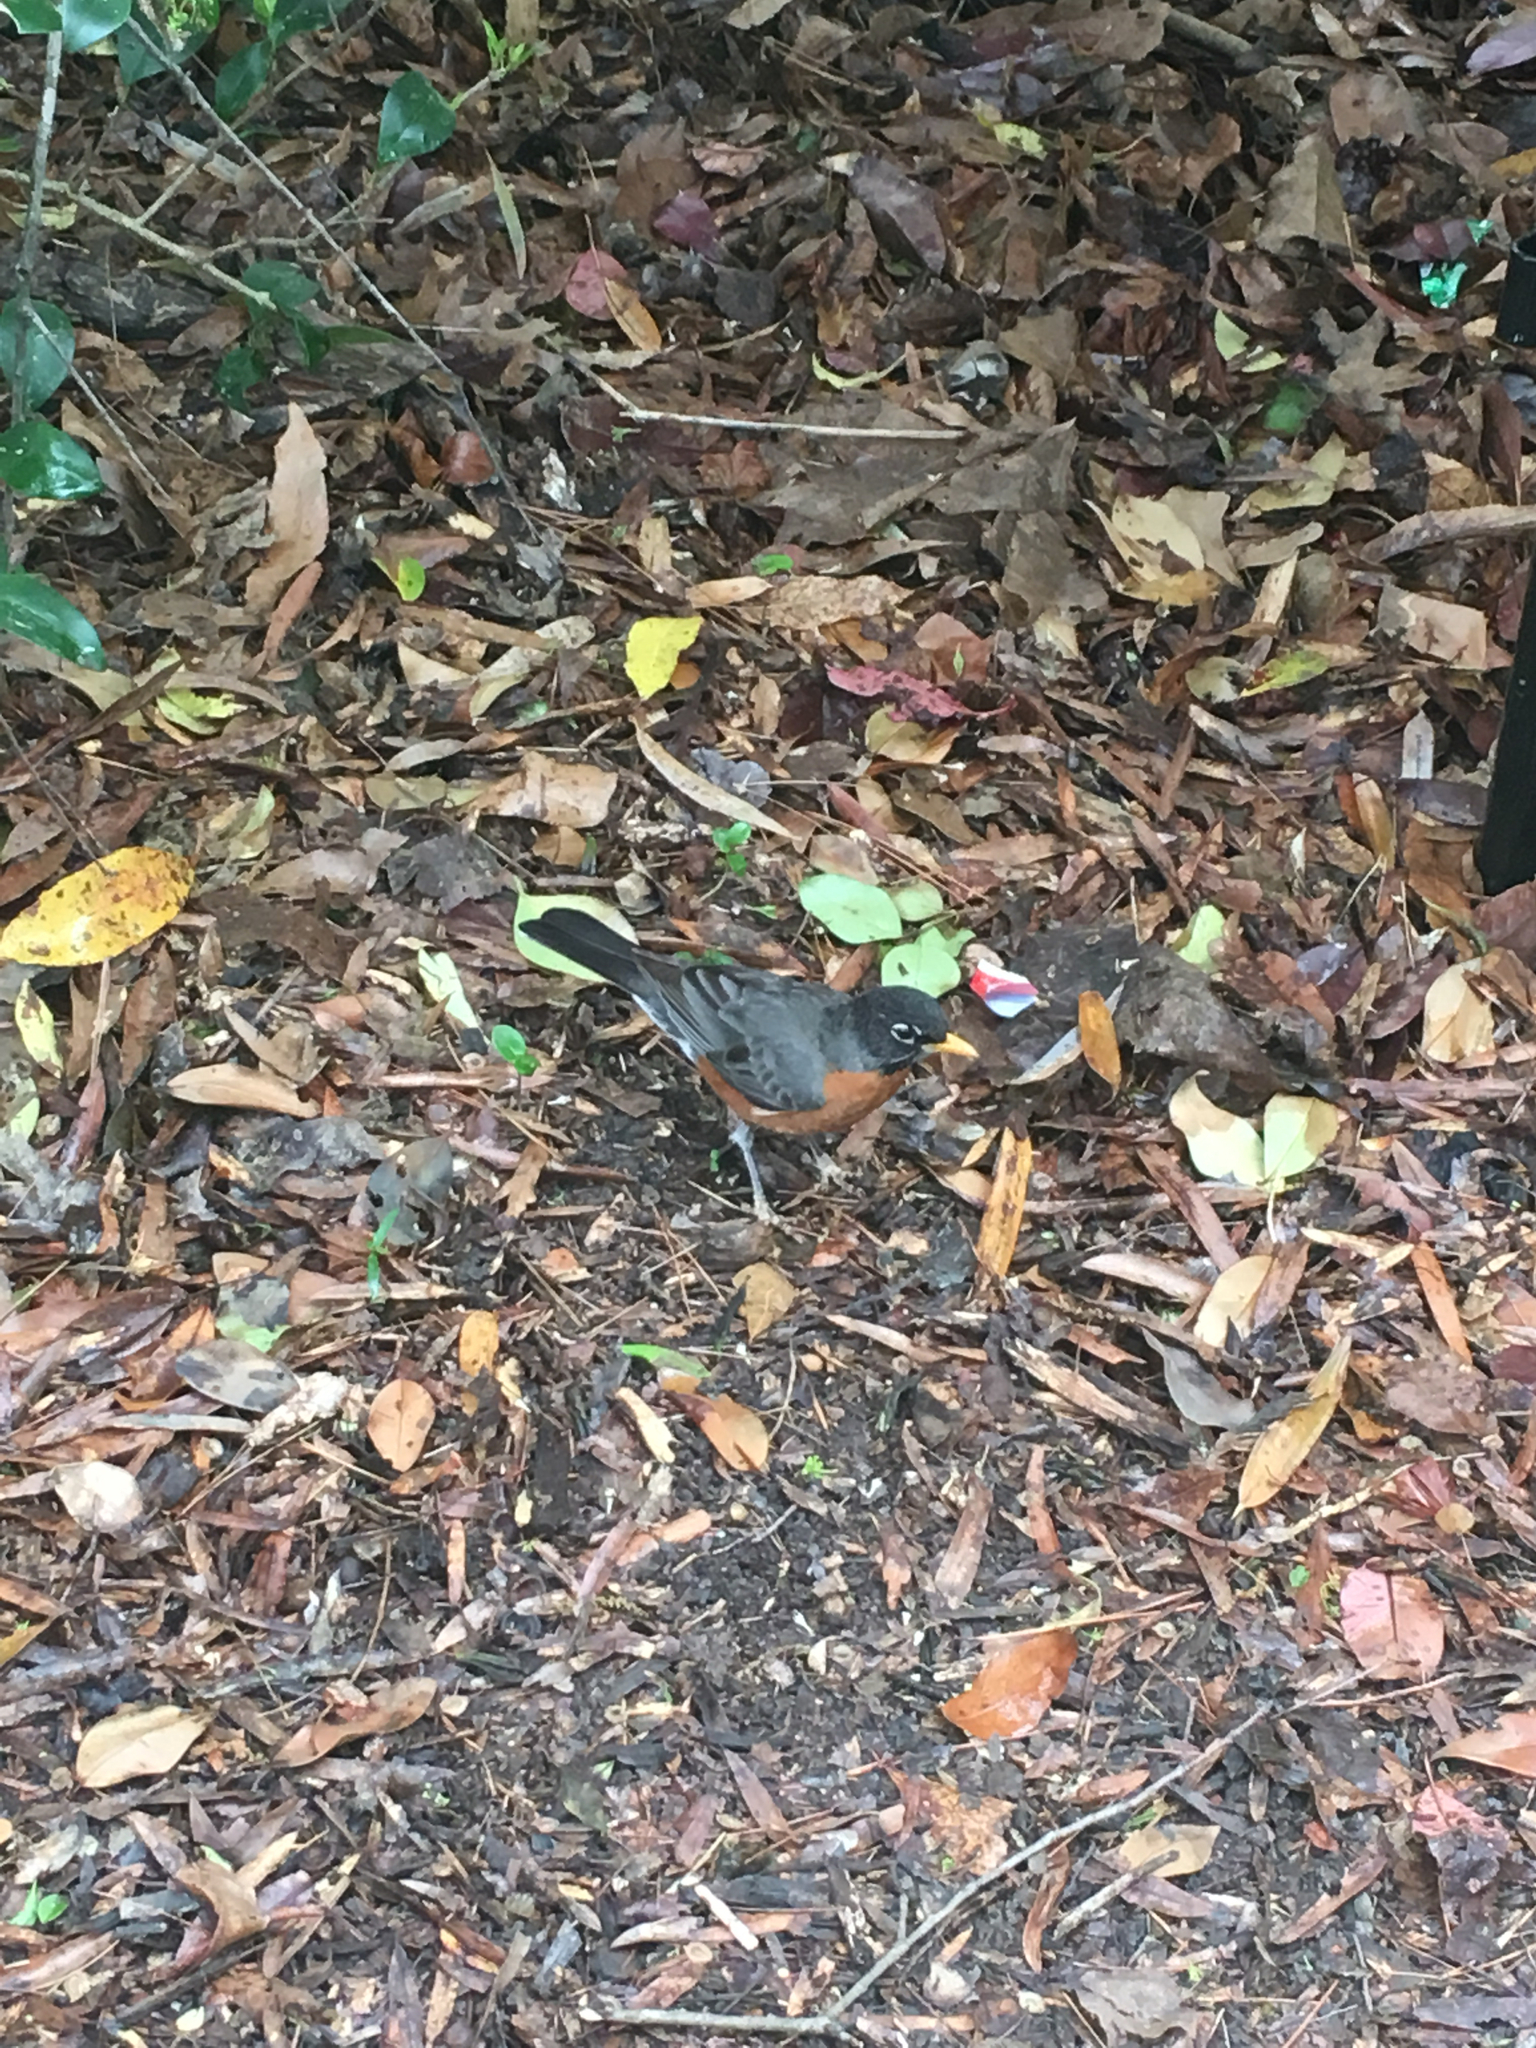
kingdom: Animalia
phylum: Chordata
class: Aves
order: Passeriformes
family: Turdidae
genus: Turdus
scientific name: Turdus migratorius
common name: American robin
